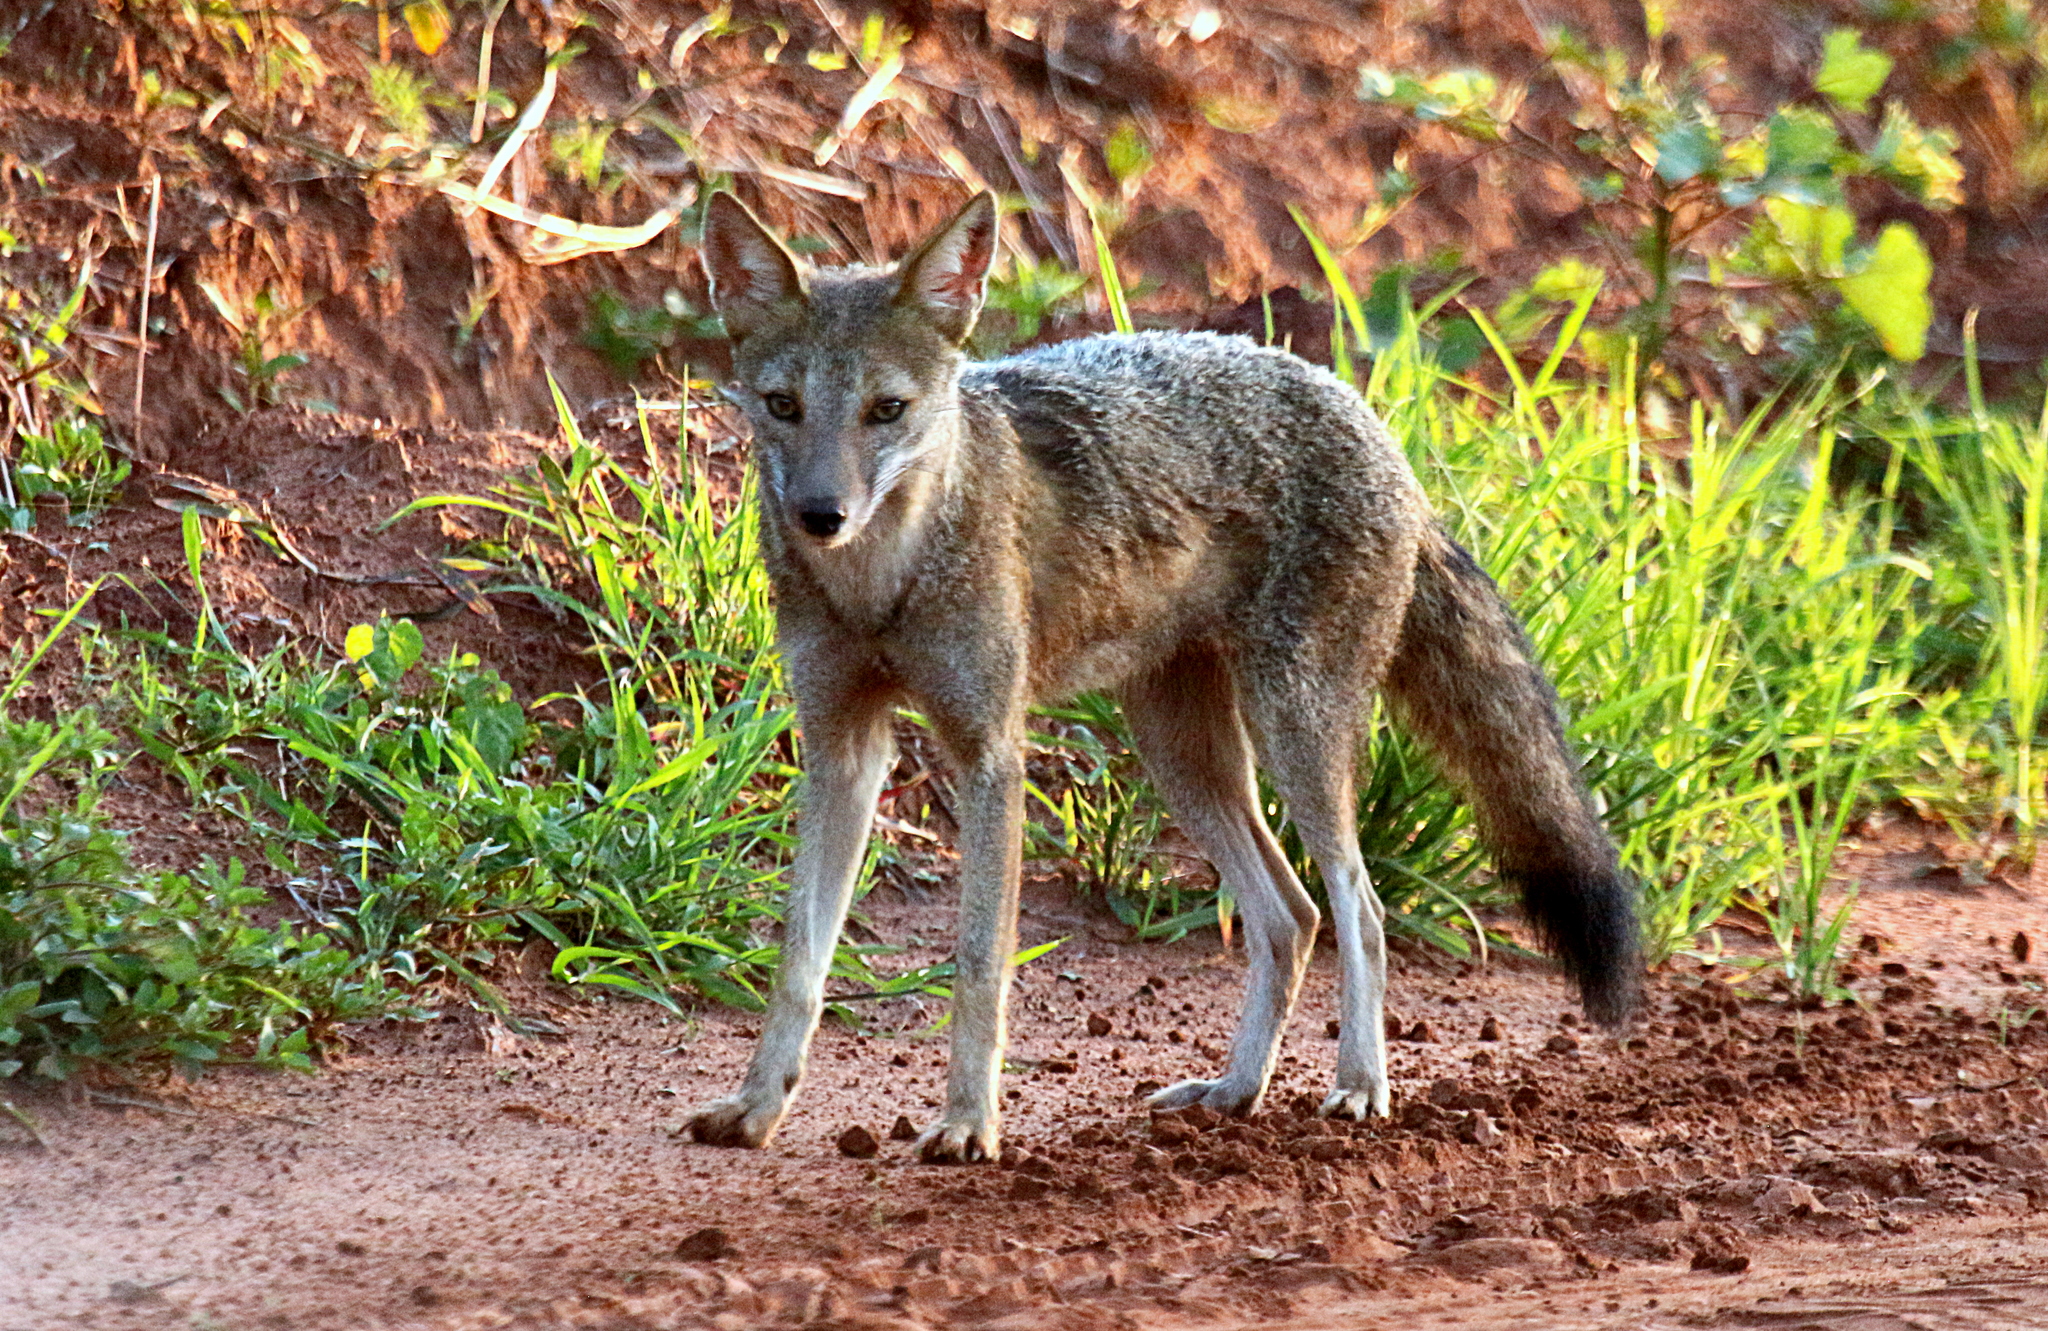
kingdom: Animalia
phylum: Chordata
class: Mammalia
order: Carnivora
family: Canidae
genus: Lycalopex
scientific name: Lycalopex gymnocercus
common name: Pampas fox
